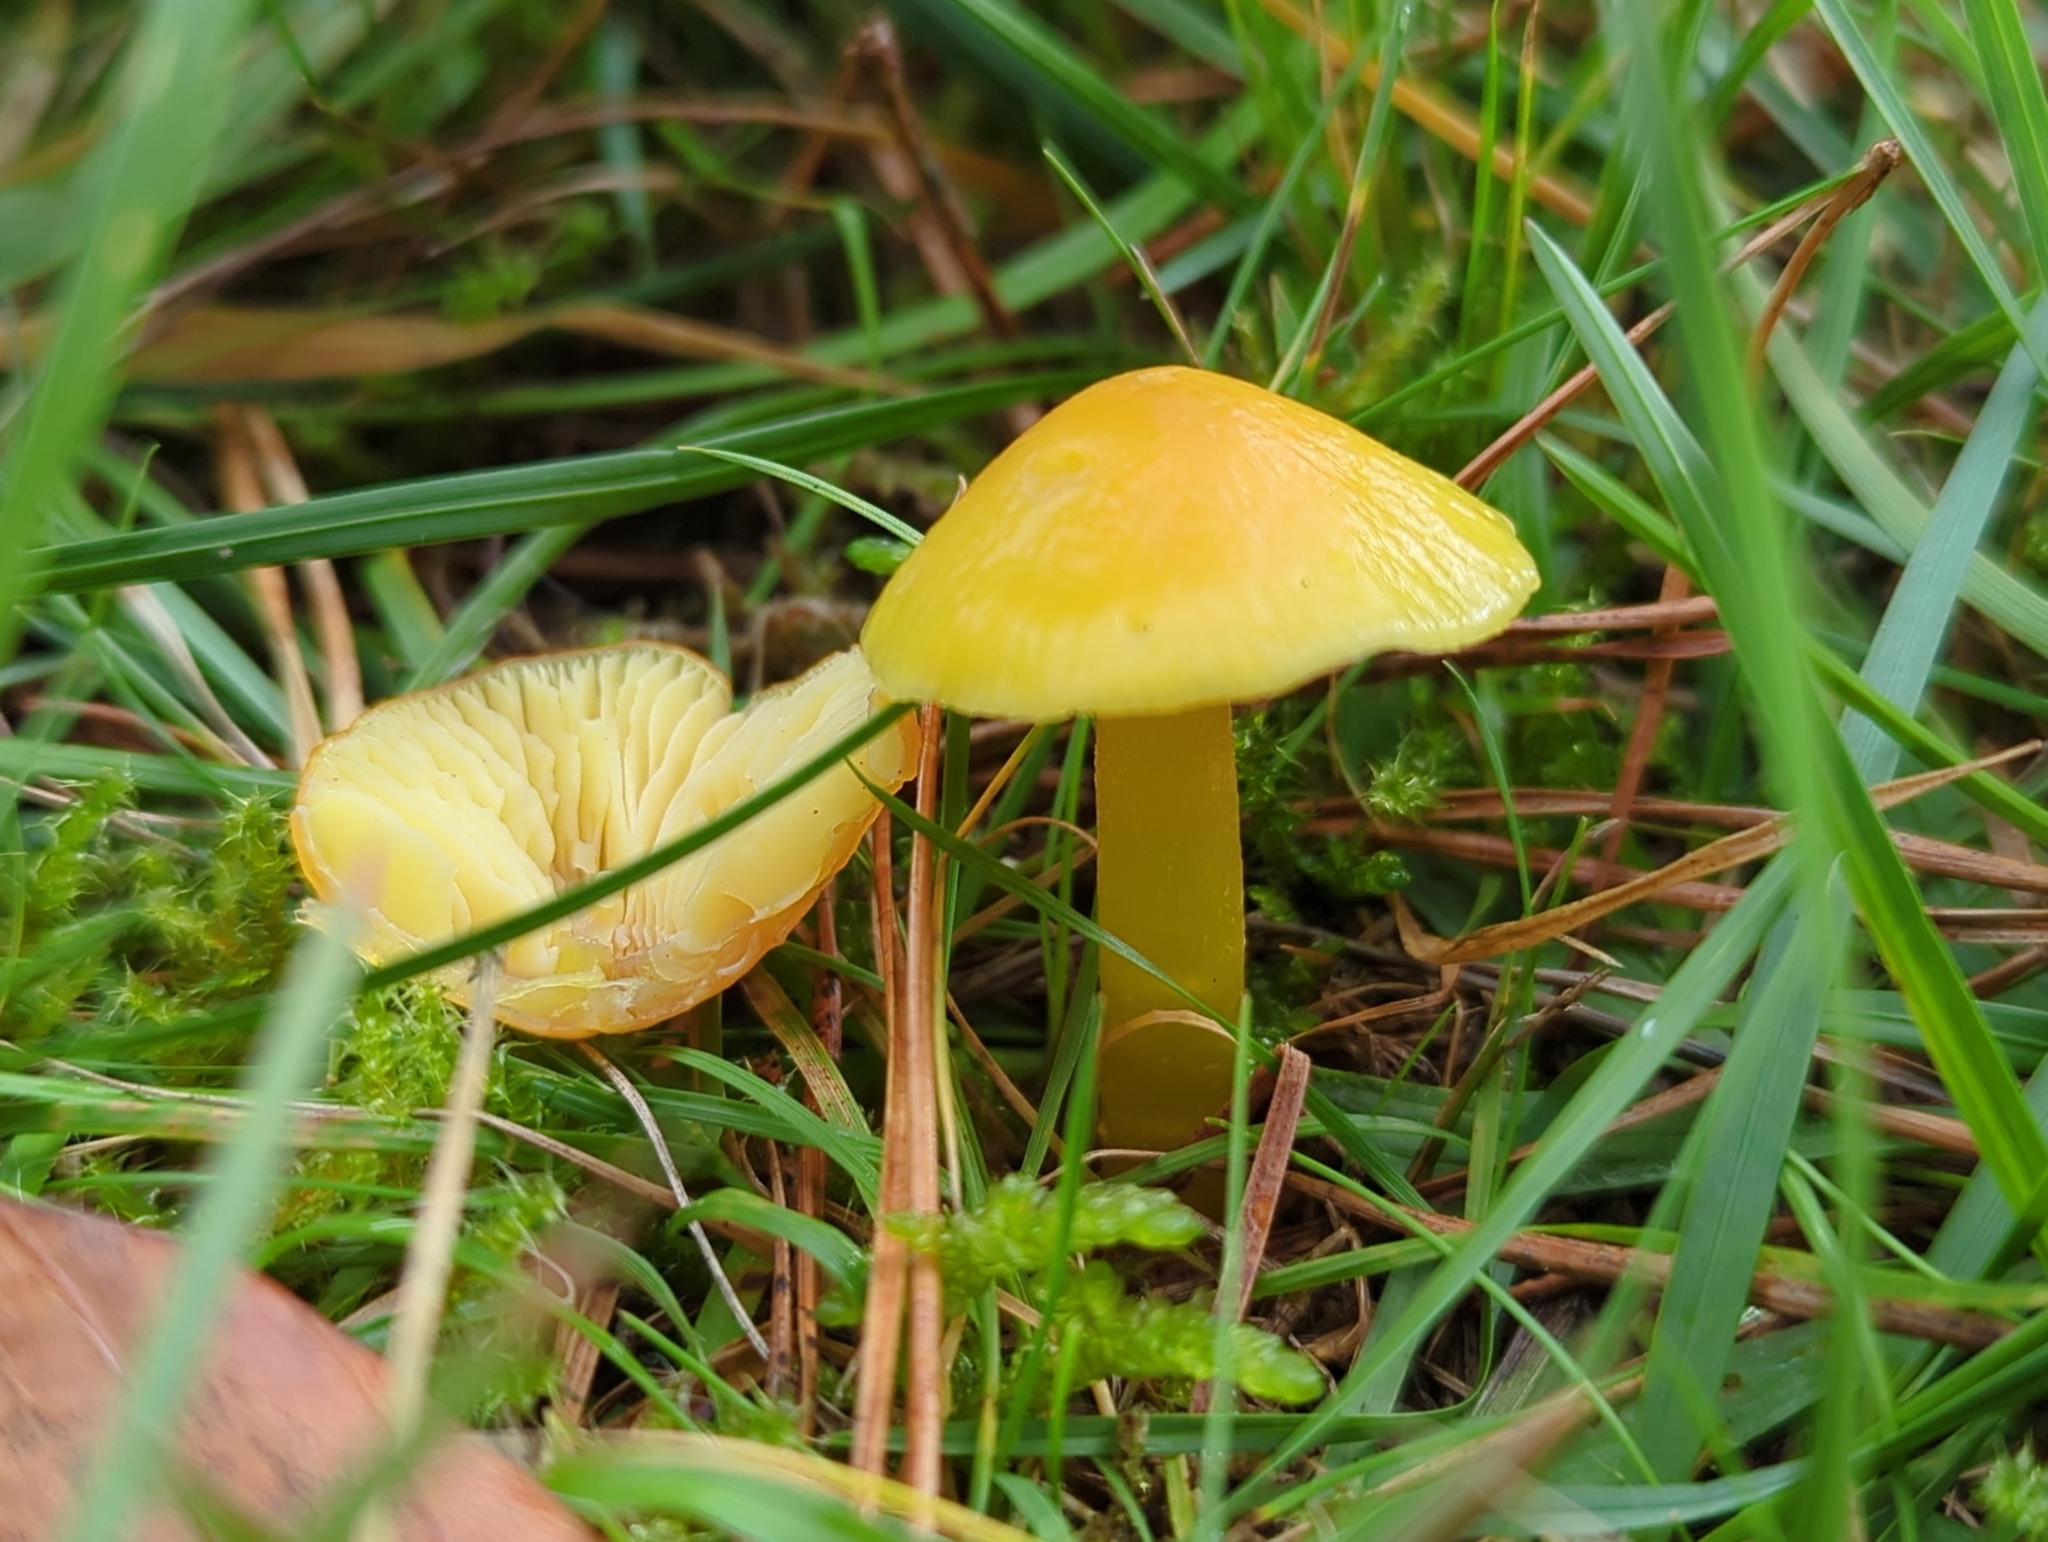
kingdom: Fungi
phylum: Basidiomycota
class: Agaricomycetes
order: Agaricales
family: Hygrophoraceae
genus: Hygrocybe
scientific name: Hygrocybe chlorophana
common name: Golden waxcap
